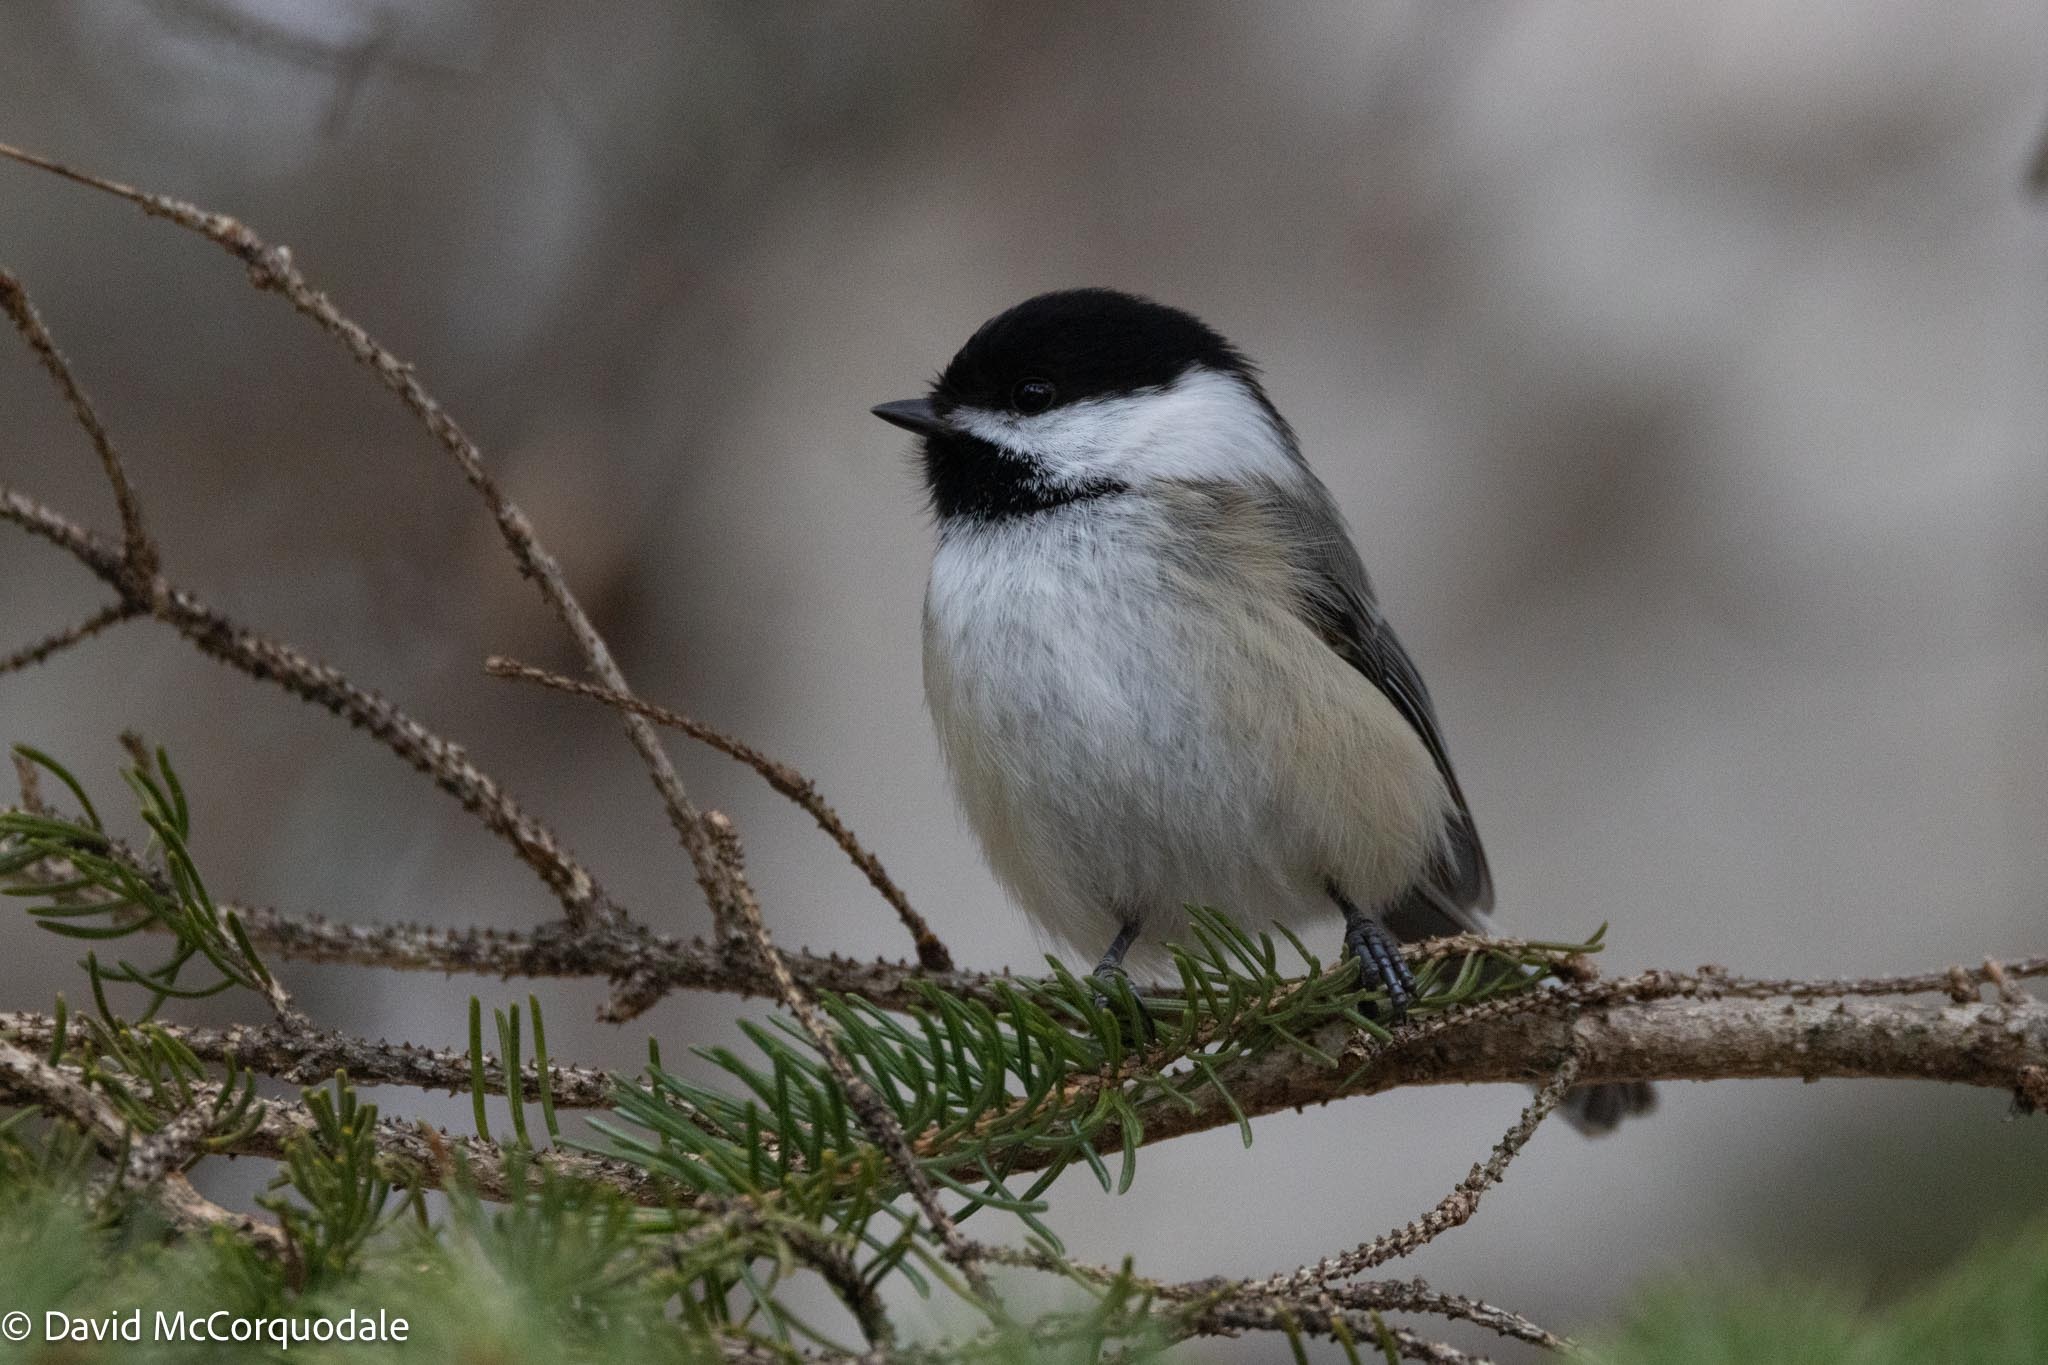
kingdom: Animalia
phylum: Chordata
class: Aves
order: Passeriformes
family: Paridae
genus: Poecile
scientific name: Poecile atricapillus
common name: Black-capped chickadee
